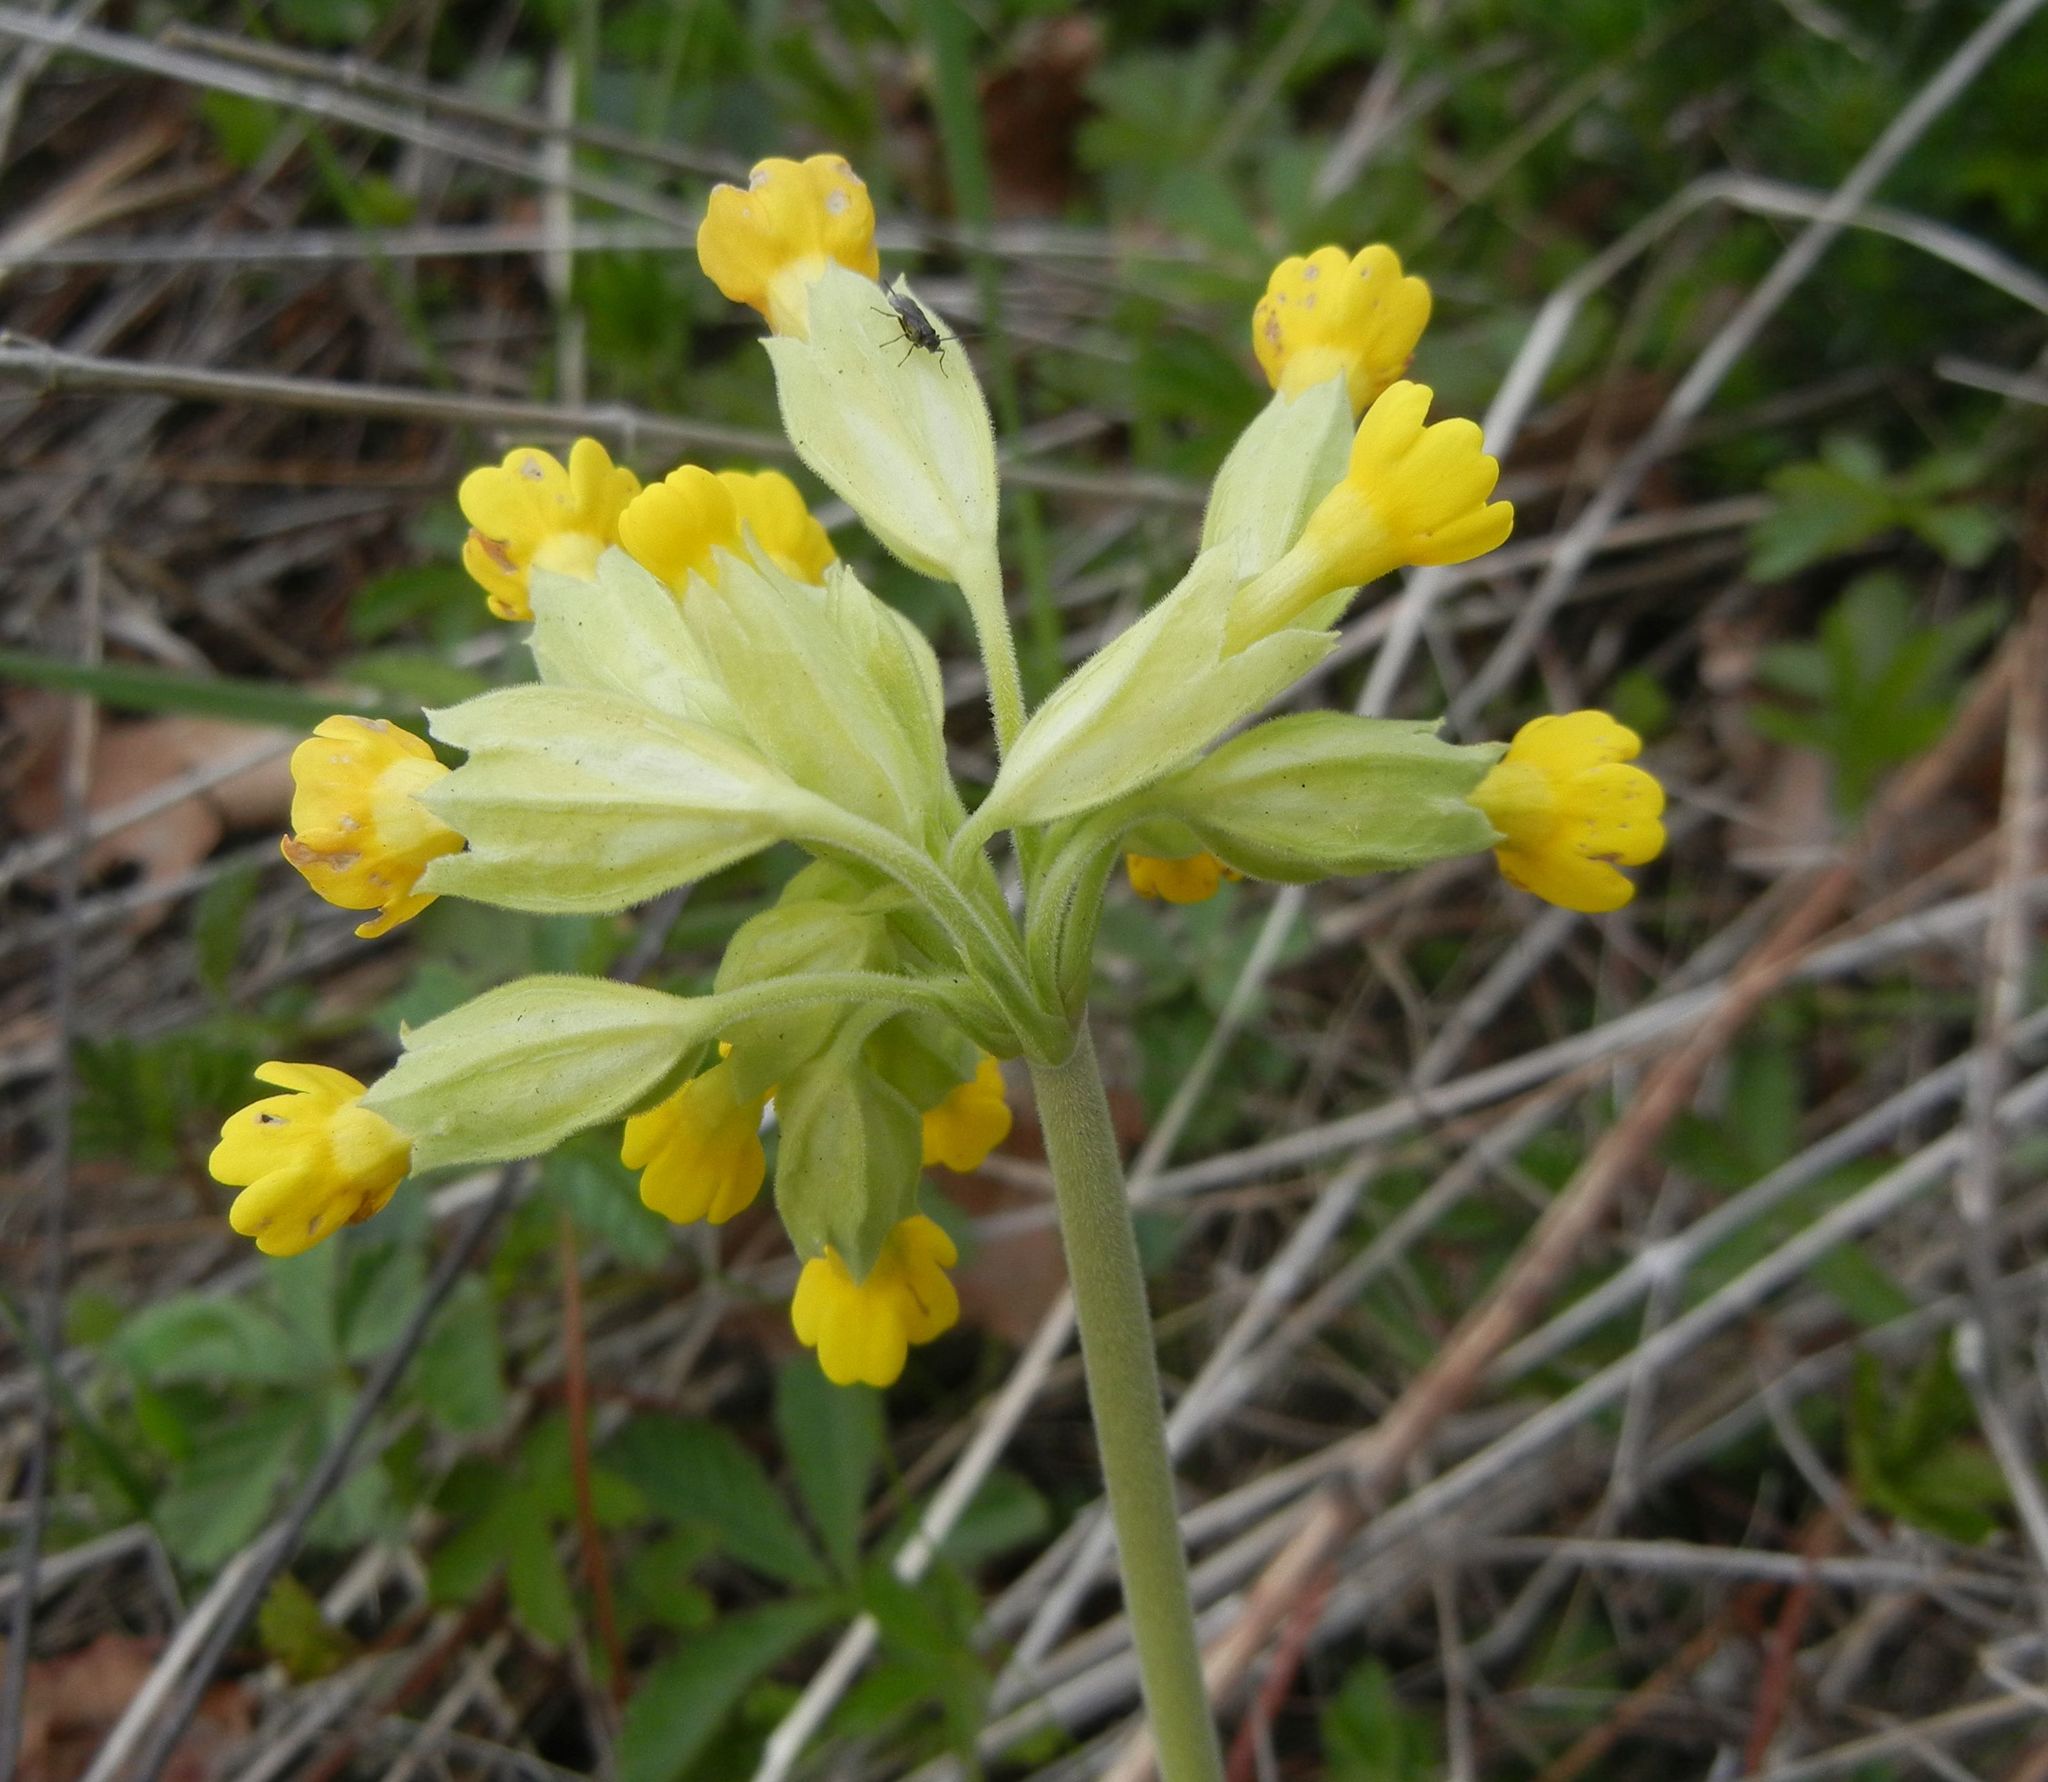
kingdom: Plantae
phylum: Tracheophyta
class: Magnoliopsida
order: Ericales
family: Primulaceae
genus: Primula
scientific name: Primula veris
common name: Cowslip
